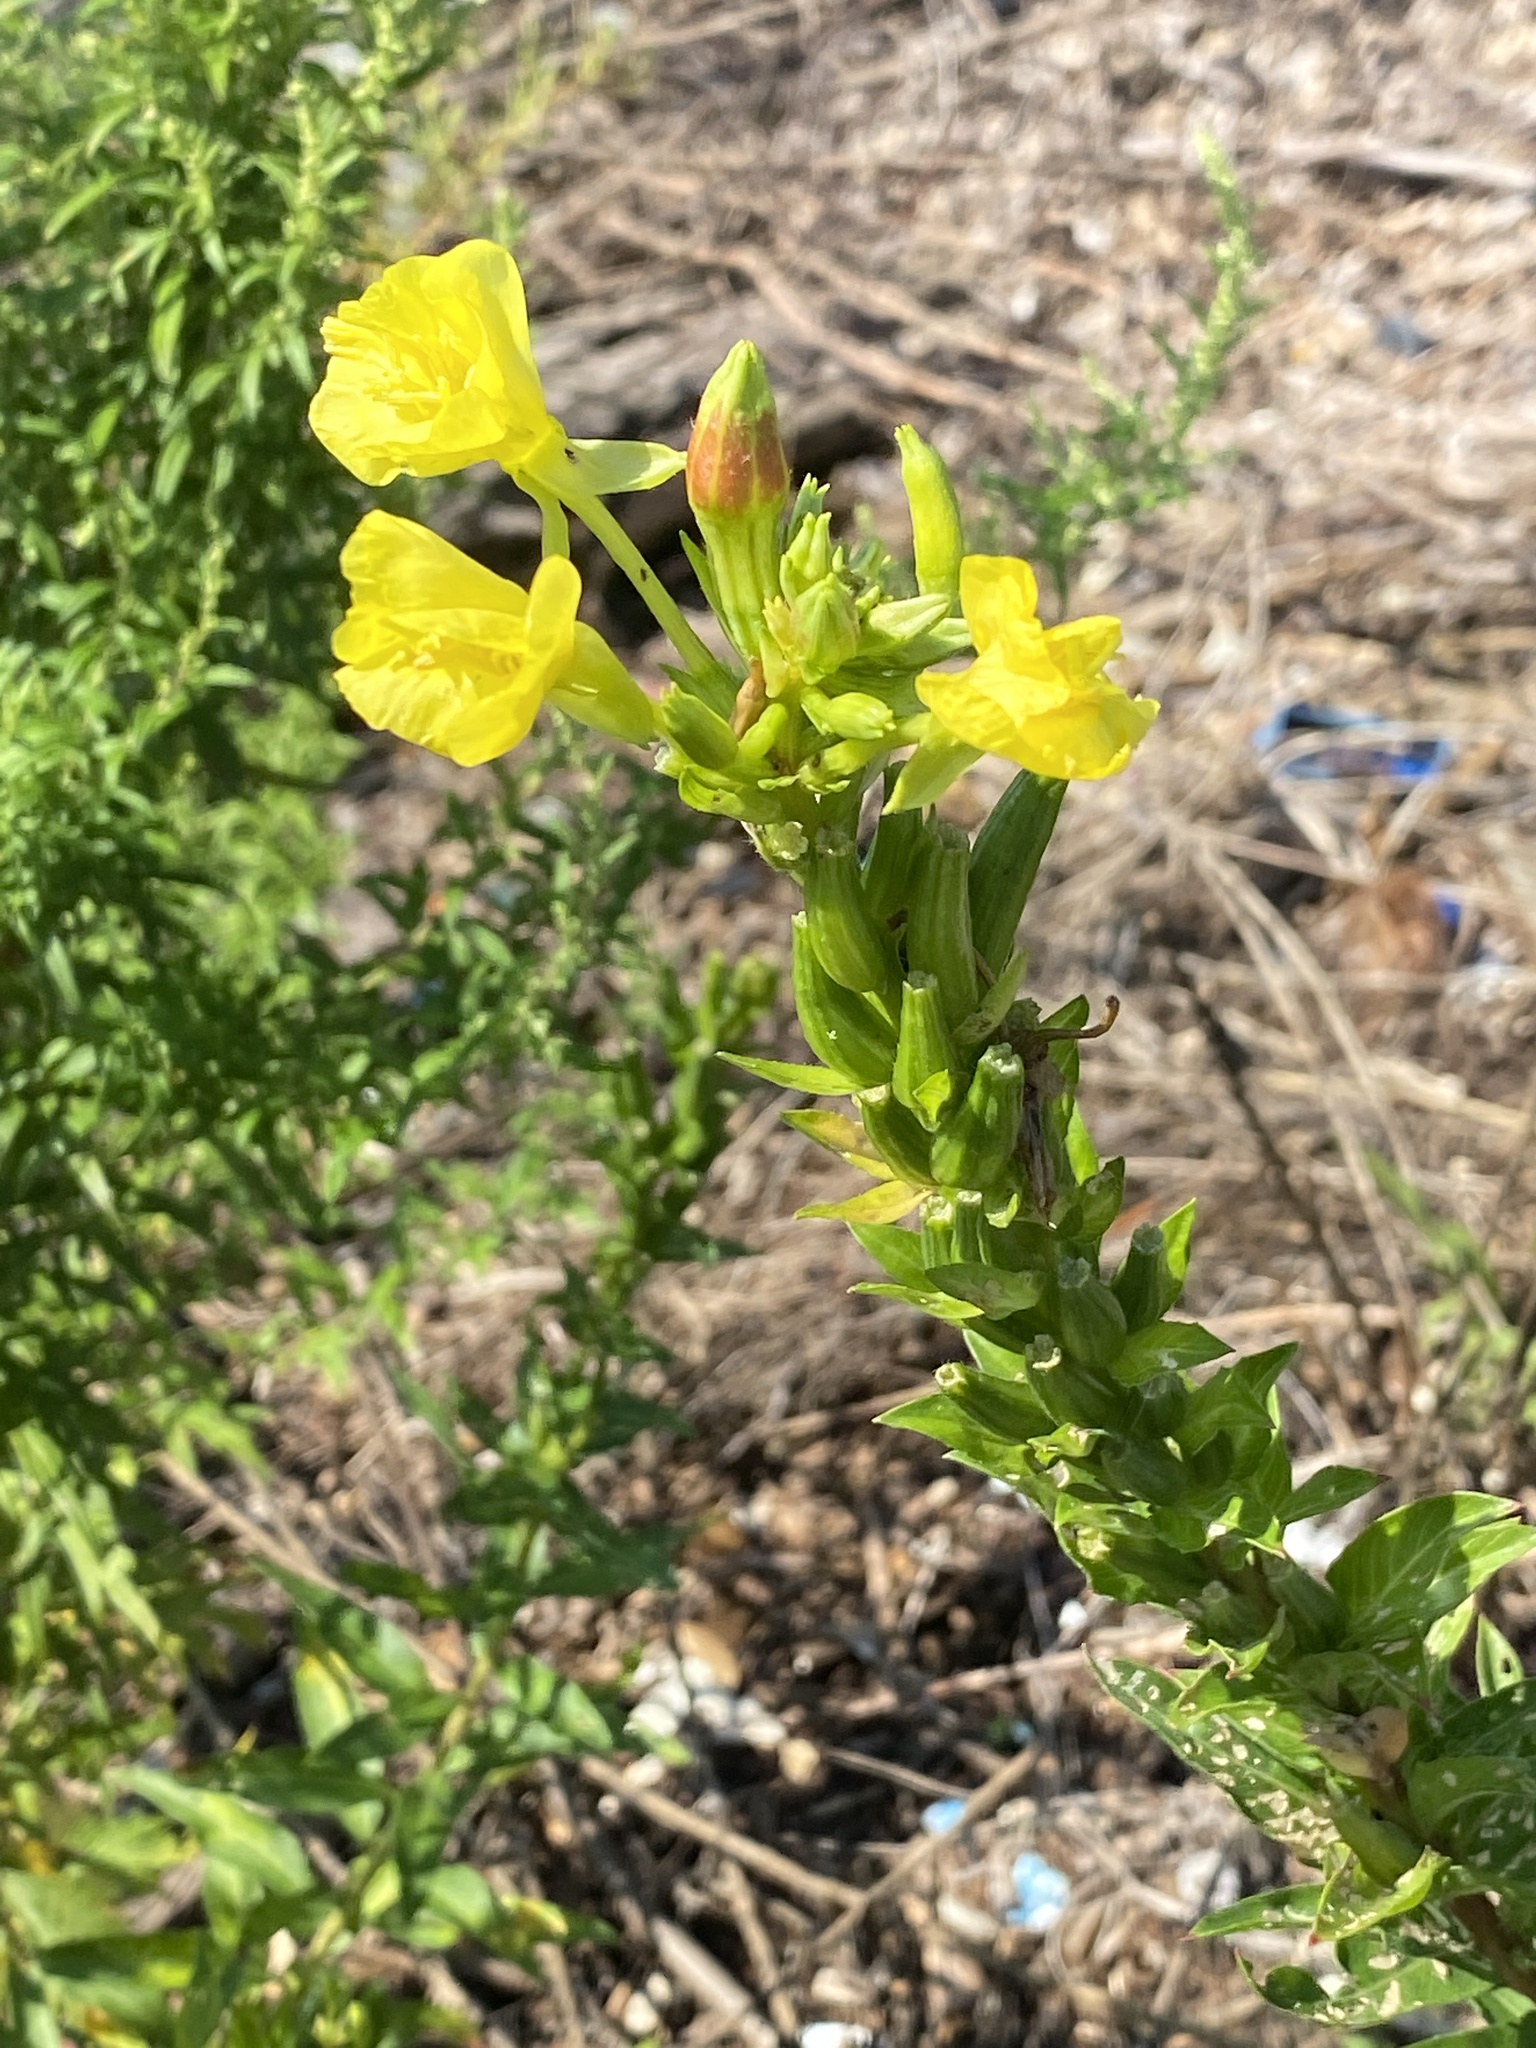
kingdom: Plantae
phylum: Tracheophyta
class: Magnoliopsida
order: Myrtales
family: Onagraceae
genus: Oenothera
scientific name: Oenothera biennis
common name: Common evening-primrose
